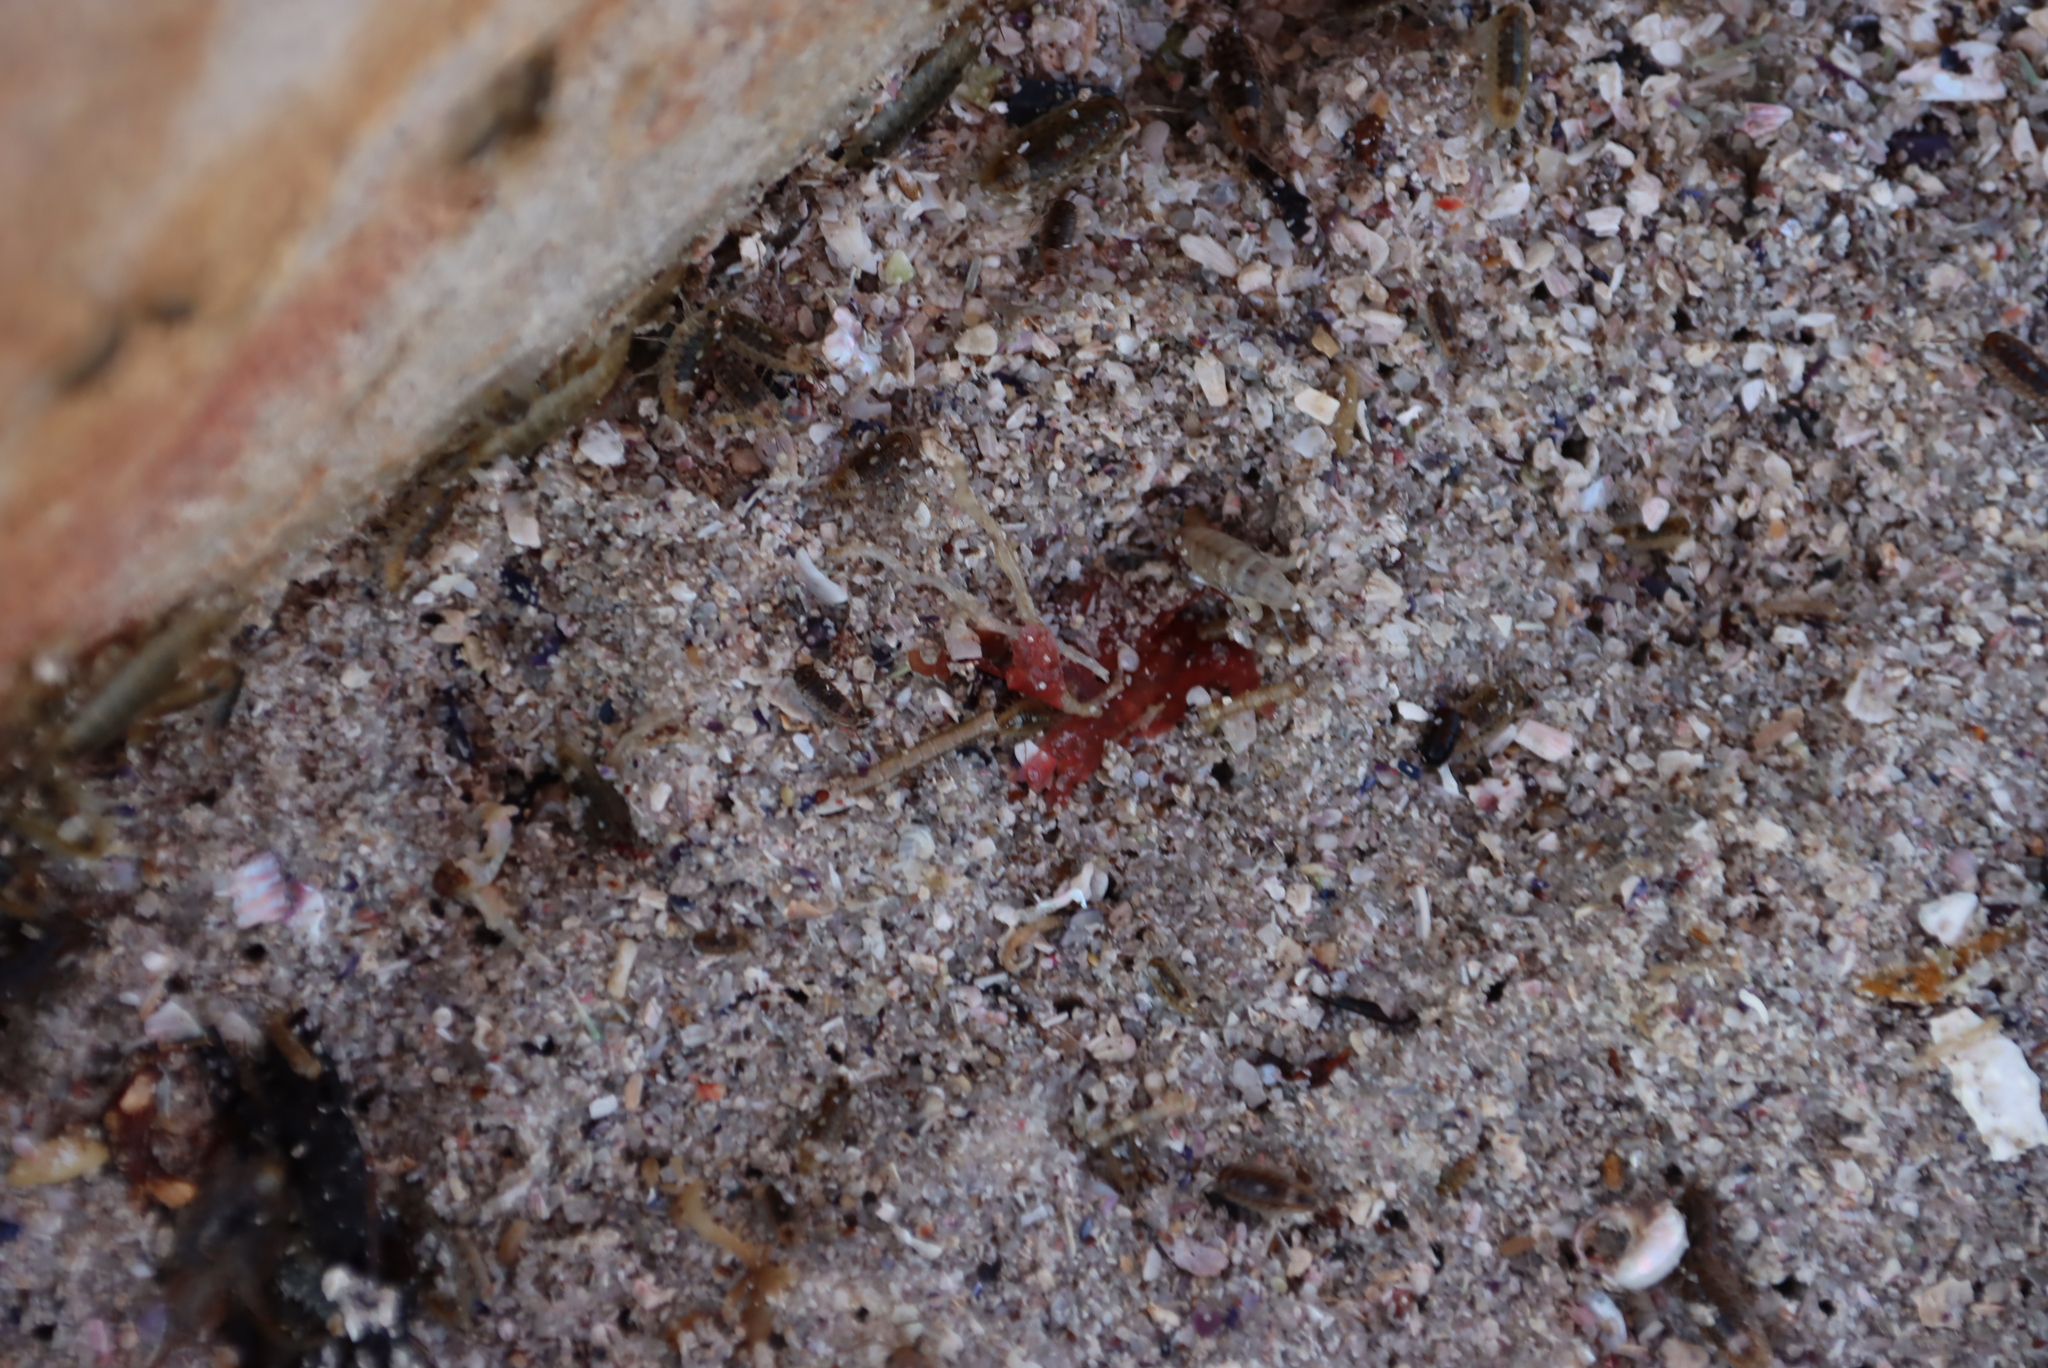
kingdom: Animalia
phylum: Arthropoda
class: Malacostraca
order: Amphipoda
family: Talitridae
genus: Capeorchestia
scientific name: Capeorchestia capensis
